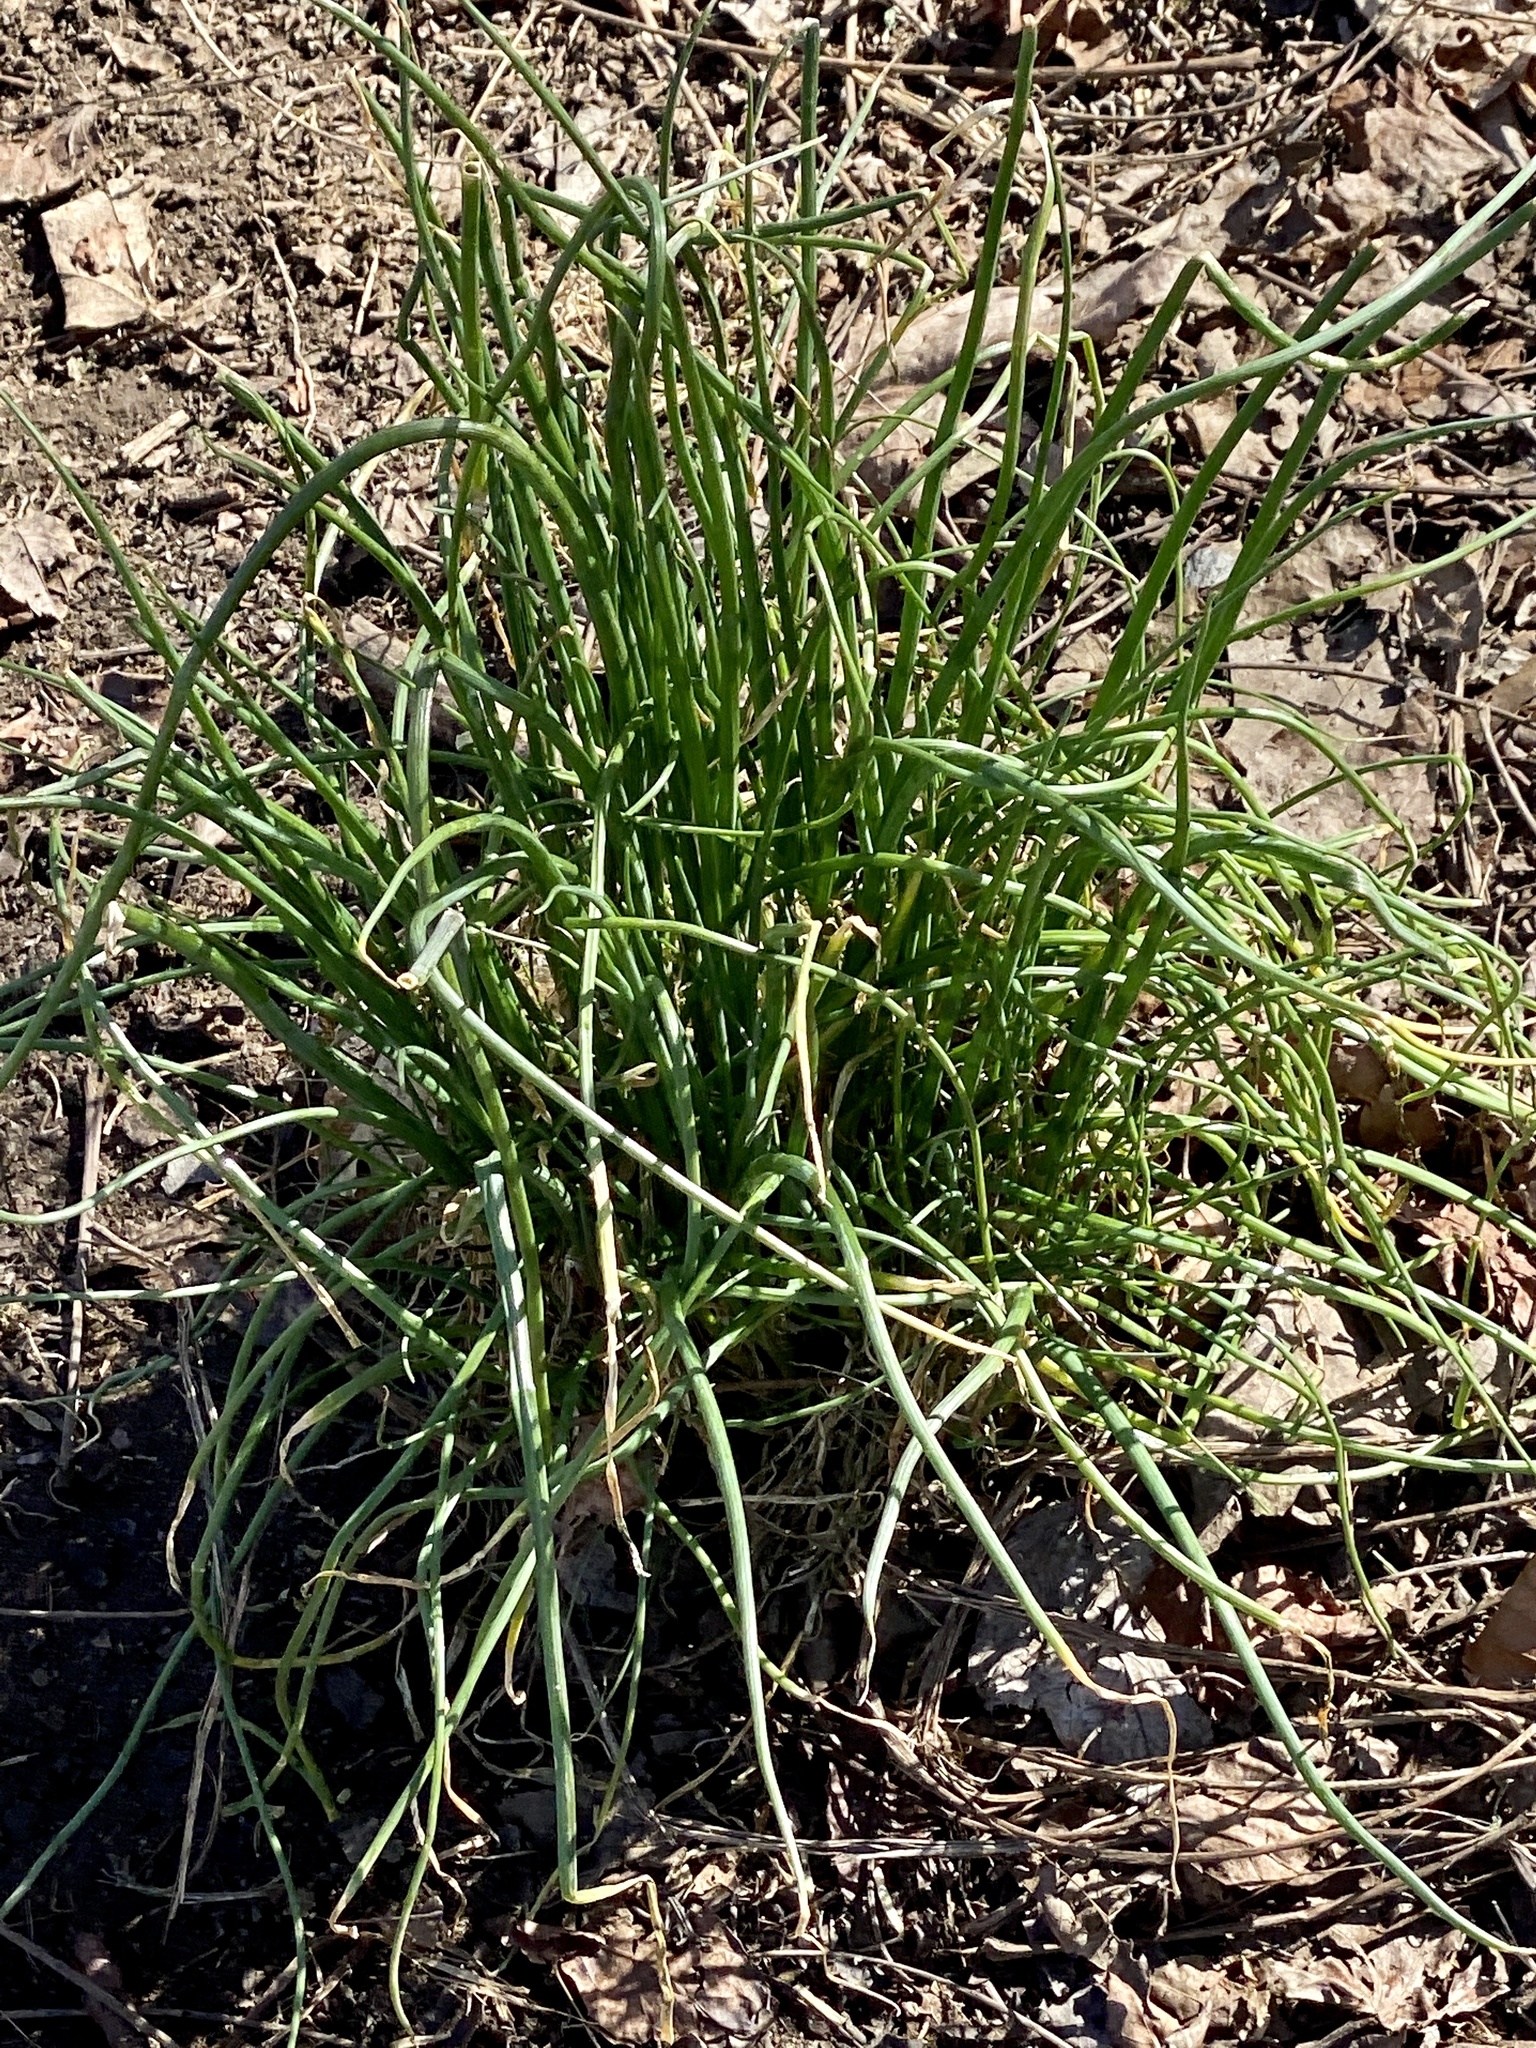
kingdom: Plantae
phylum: Tracheophyta
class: Liliopsida
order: Asparagales
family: Amaryllidaceae
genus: Allium
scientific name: Allium vineale
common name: Crow garlic
